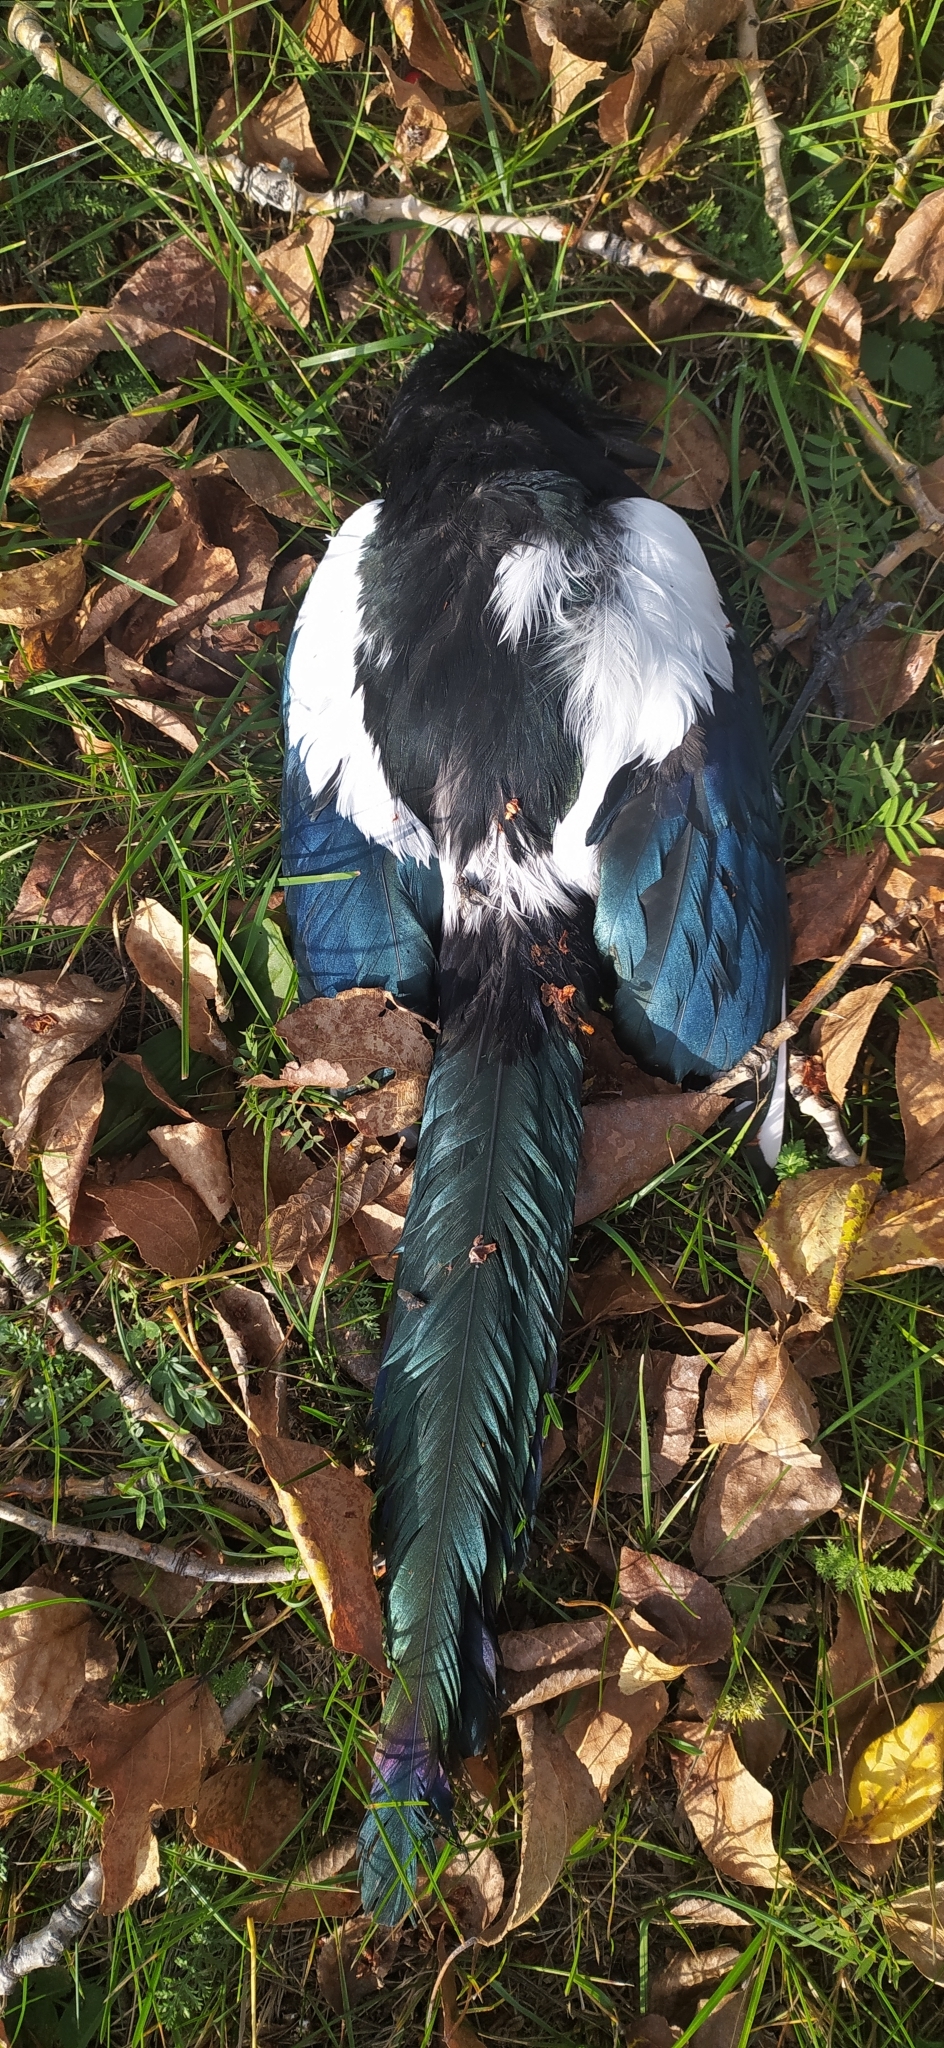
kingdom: Animalia
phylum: Chordata
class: Aves
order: Passeriformes
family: Corvidae
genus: Pica
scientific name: Pica pica
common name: Eurasian magpie
